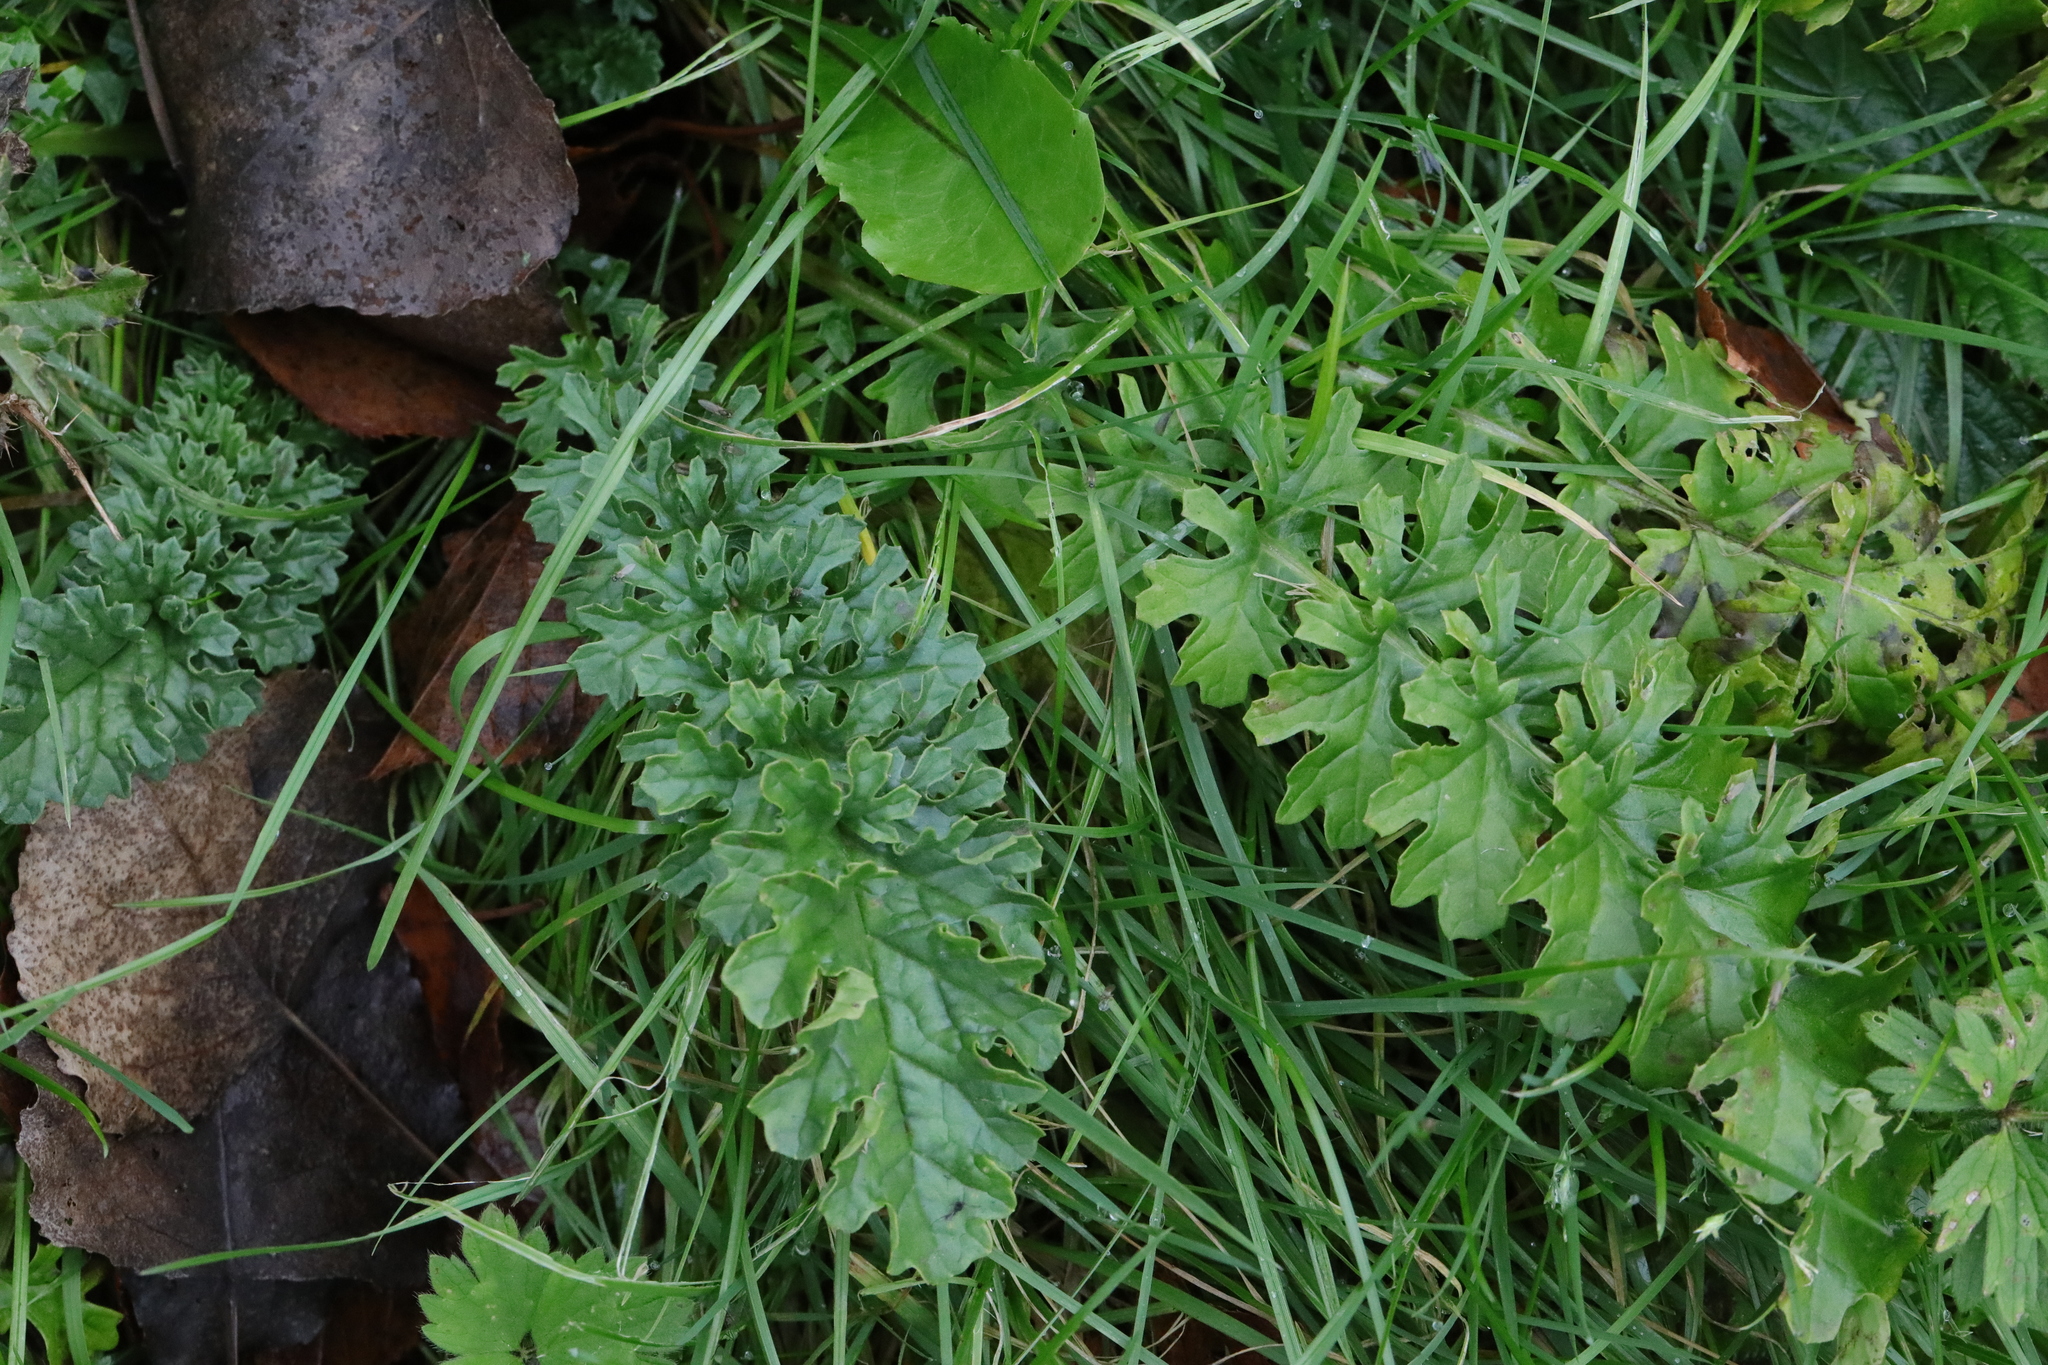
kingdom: Plantae
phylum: Tracheophyta
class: Magnoliopsida
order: Asterales
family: Asteraceae
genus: Jacobaea
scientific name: Jacobaea vulgaris
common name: Stinking willie
